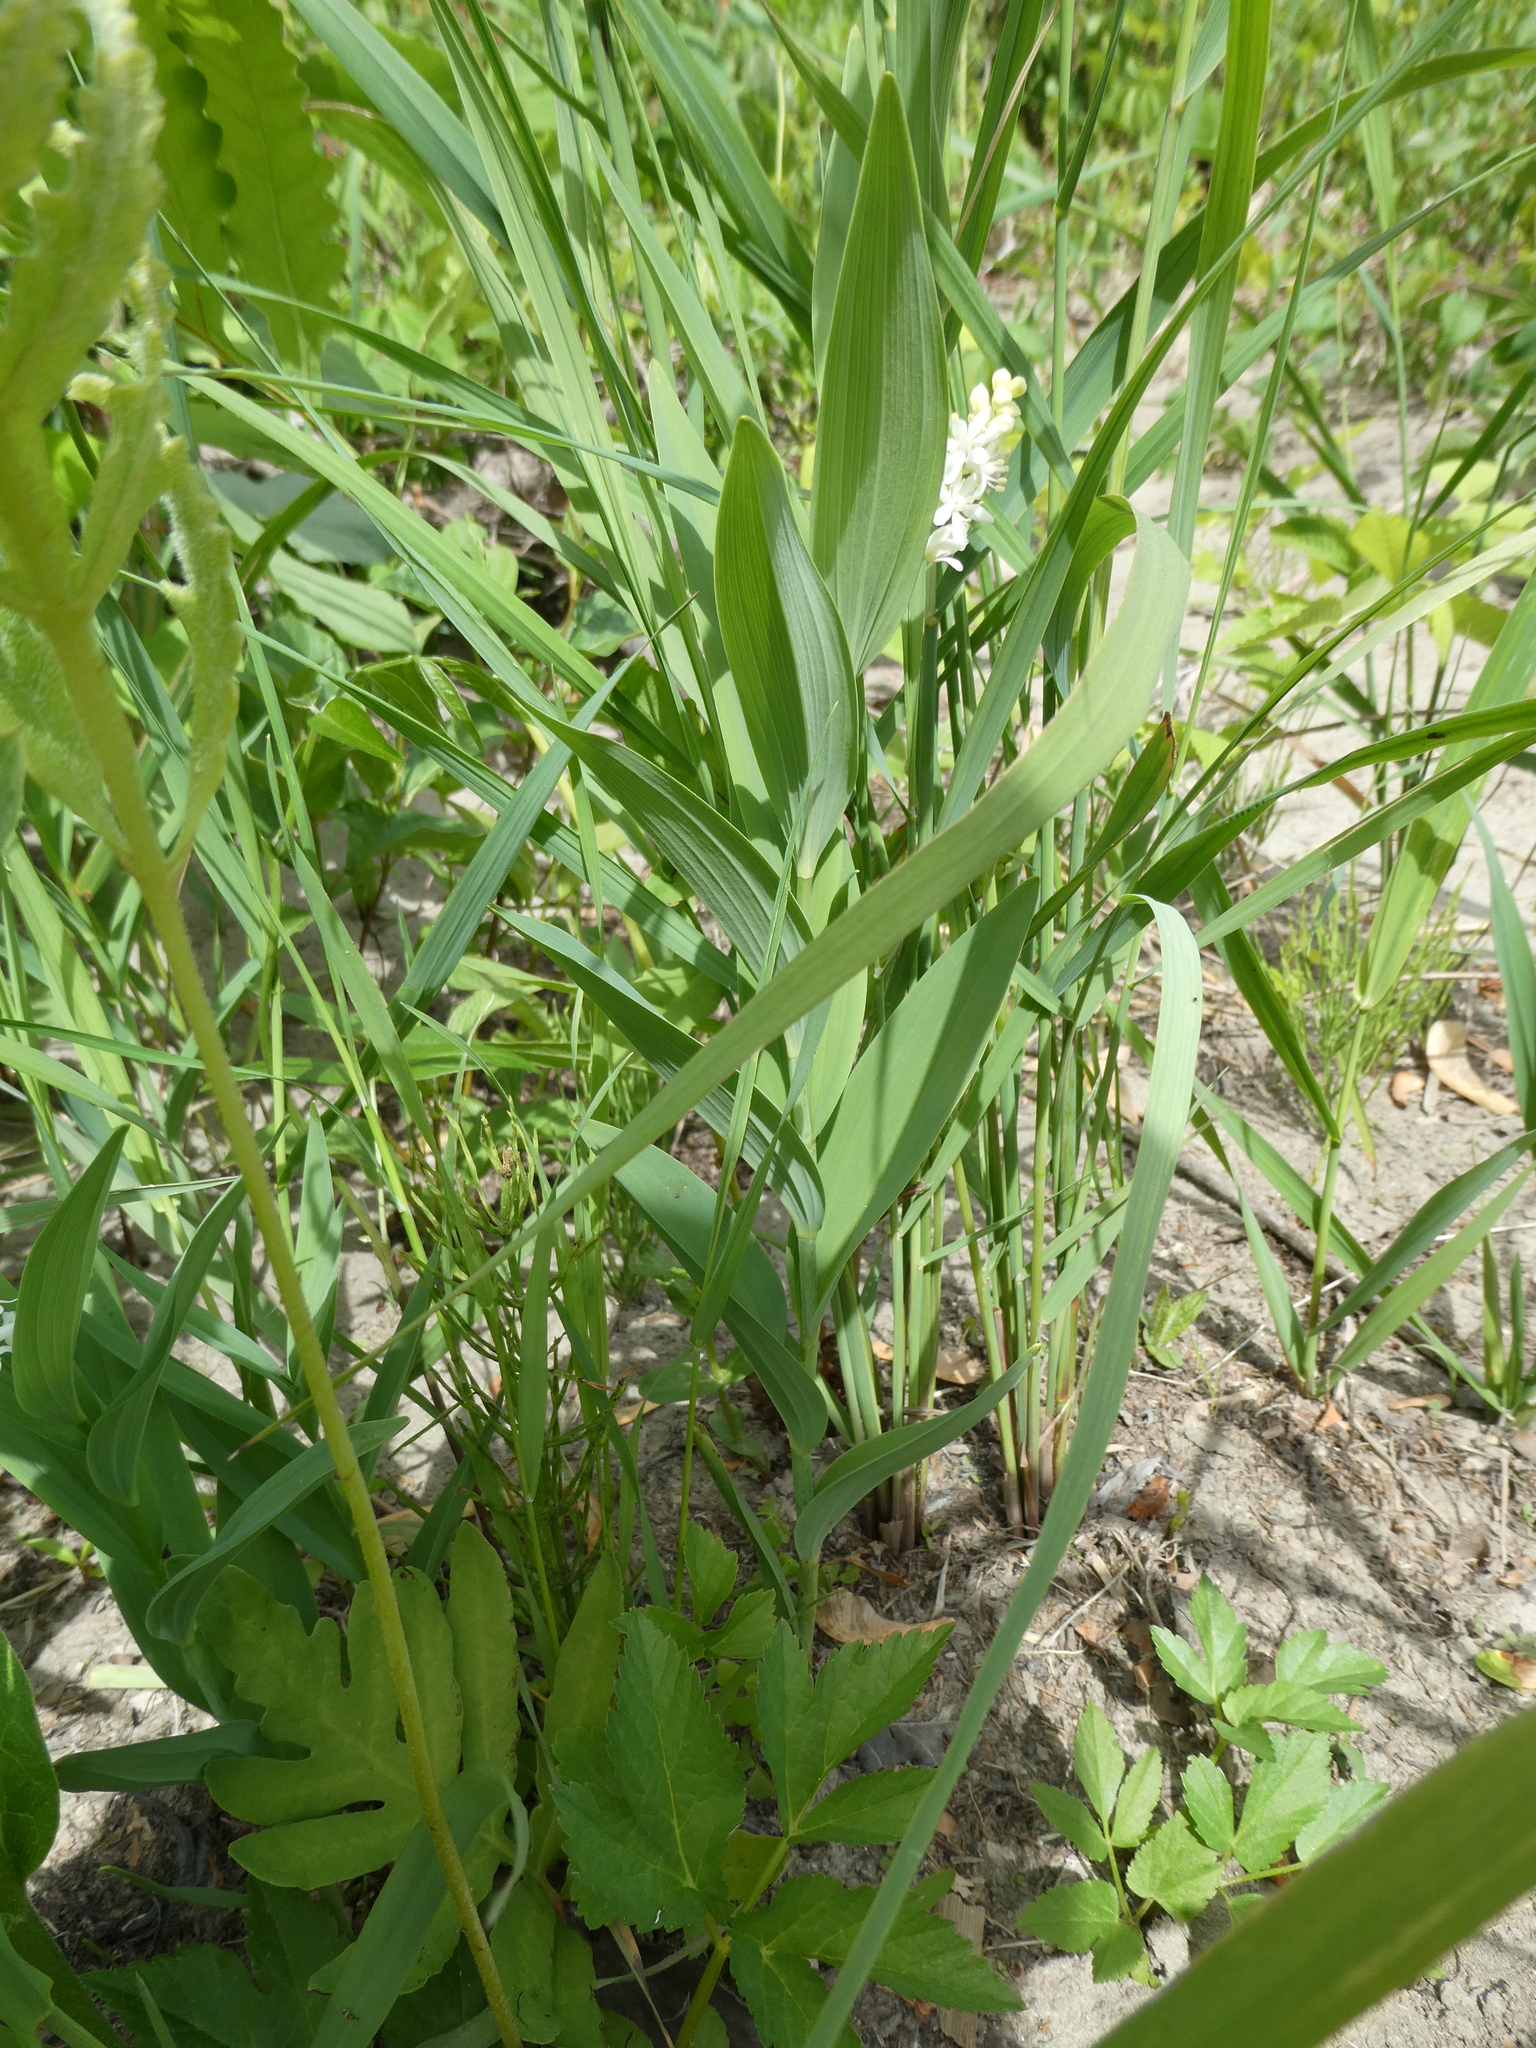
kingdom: Plantae
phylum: Tracheophyta
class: Liliopsida
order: Asparagales
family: Asparagaceae
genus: Maianthemum
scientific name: Maianthemum stellatum
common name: Little false solomon's seal
